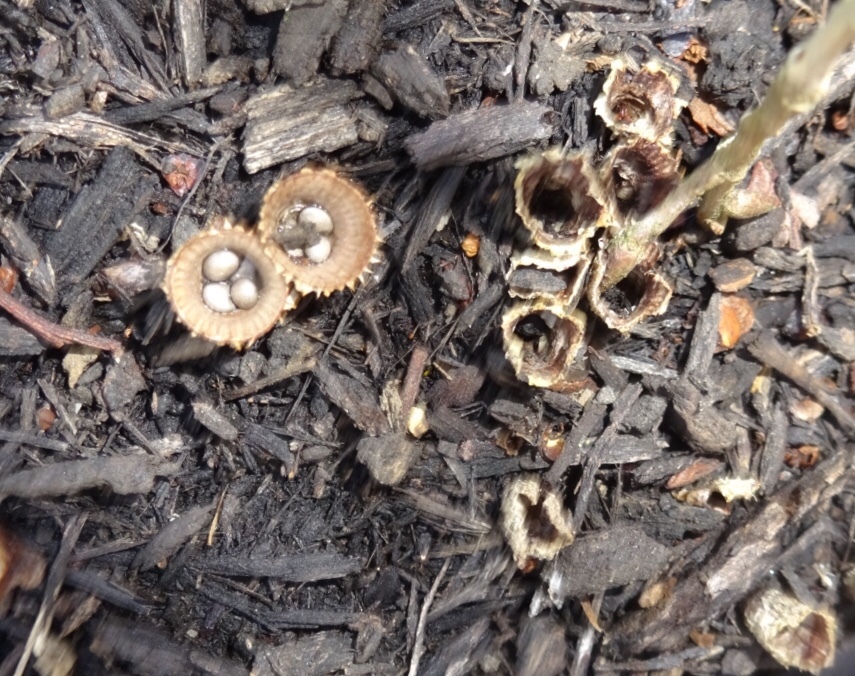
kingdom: Fungi
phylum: Basidiomycota
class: Agaricomycetes
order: Agaricales
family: Agaricaceae
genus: Cyathus
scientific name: Cyathus striatus
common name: Fluted bird's nest
